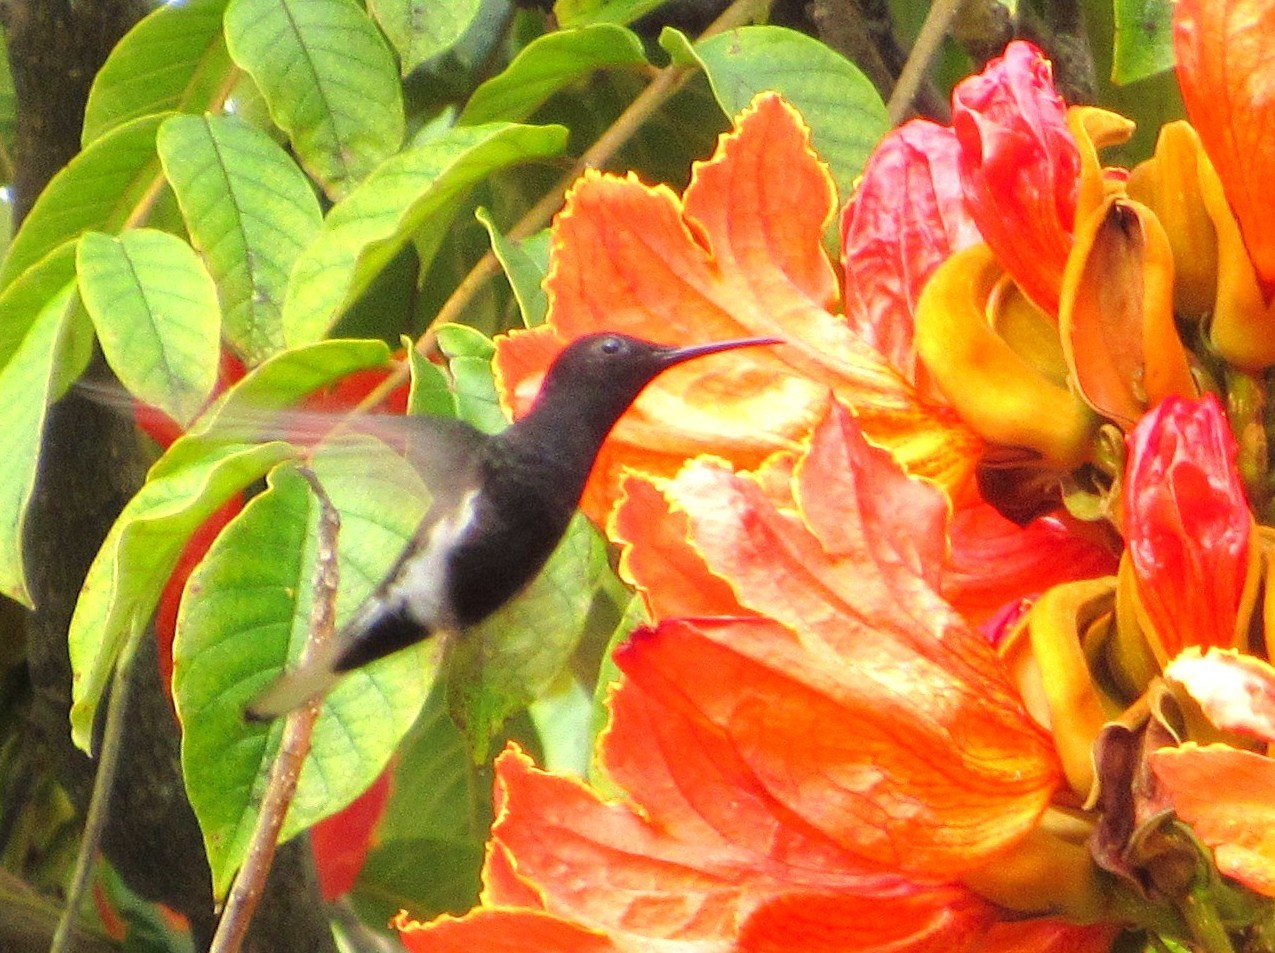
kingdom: Animalia
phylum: Chordata
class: Aves
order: Apodiformes
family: Trochilidae
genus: Florisuga
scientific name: Florisuga fusca
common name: Black jacobin
